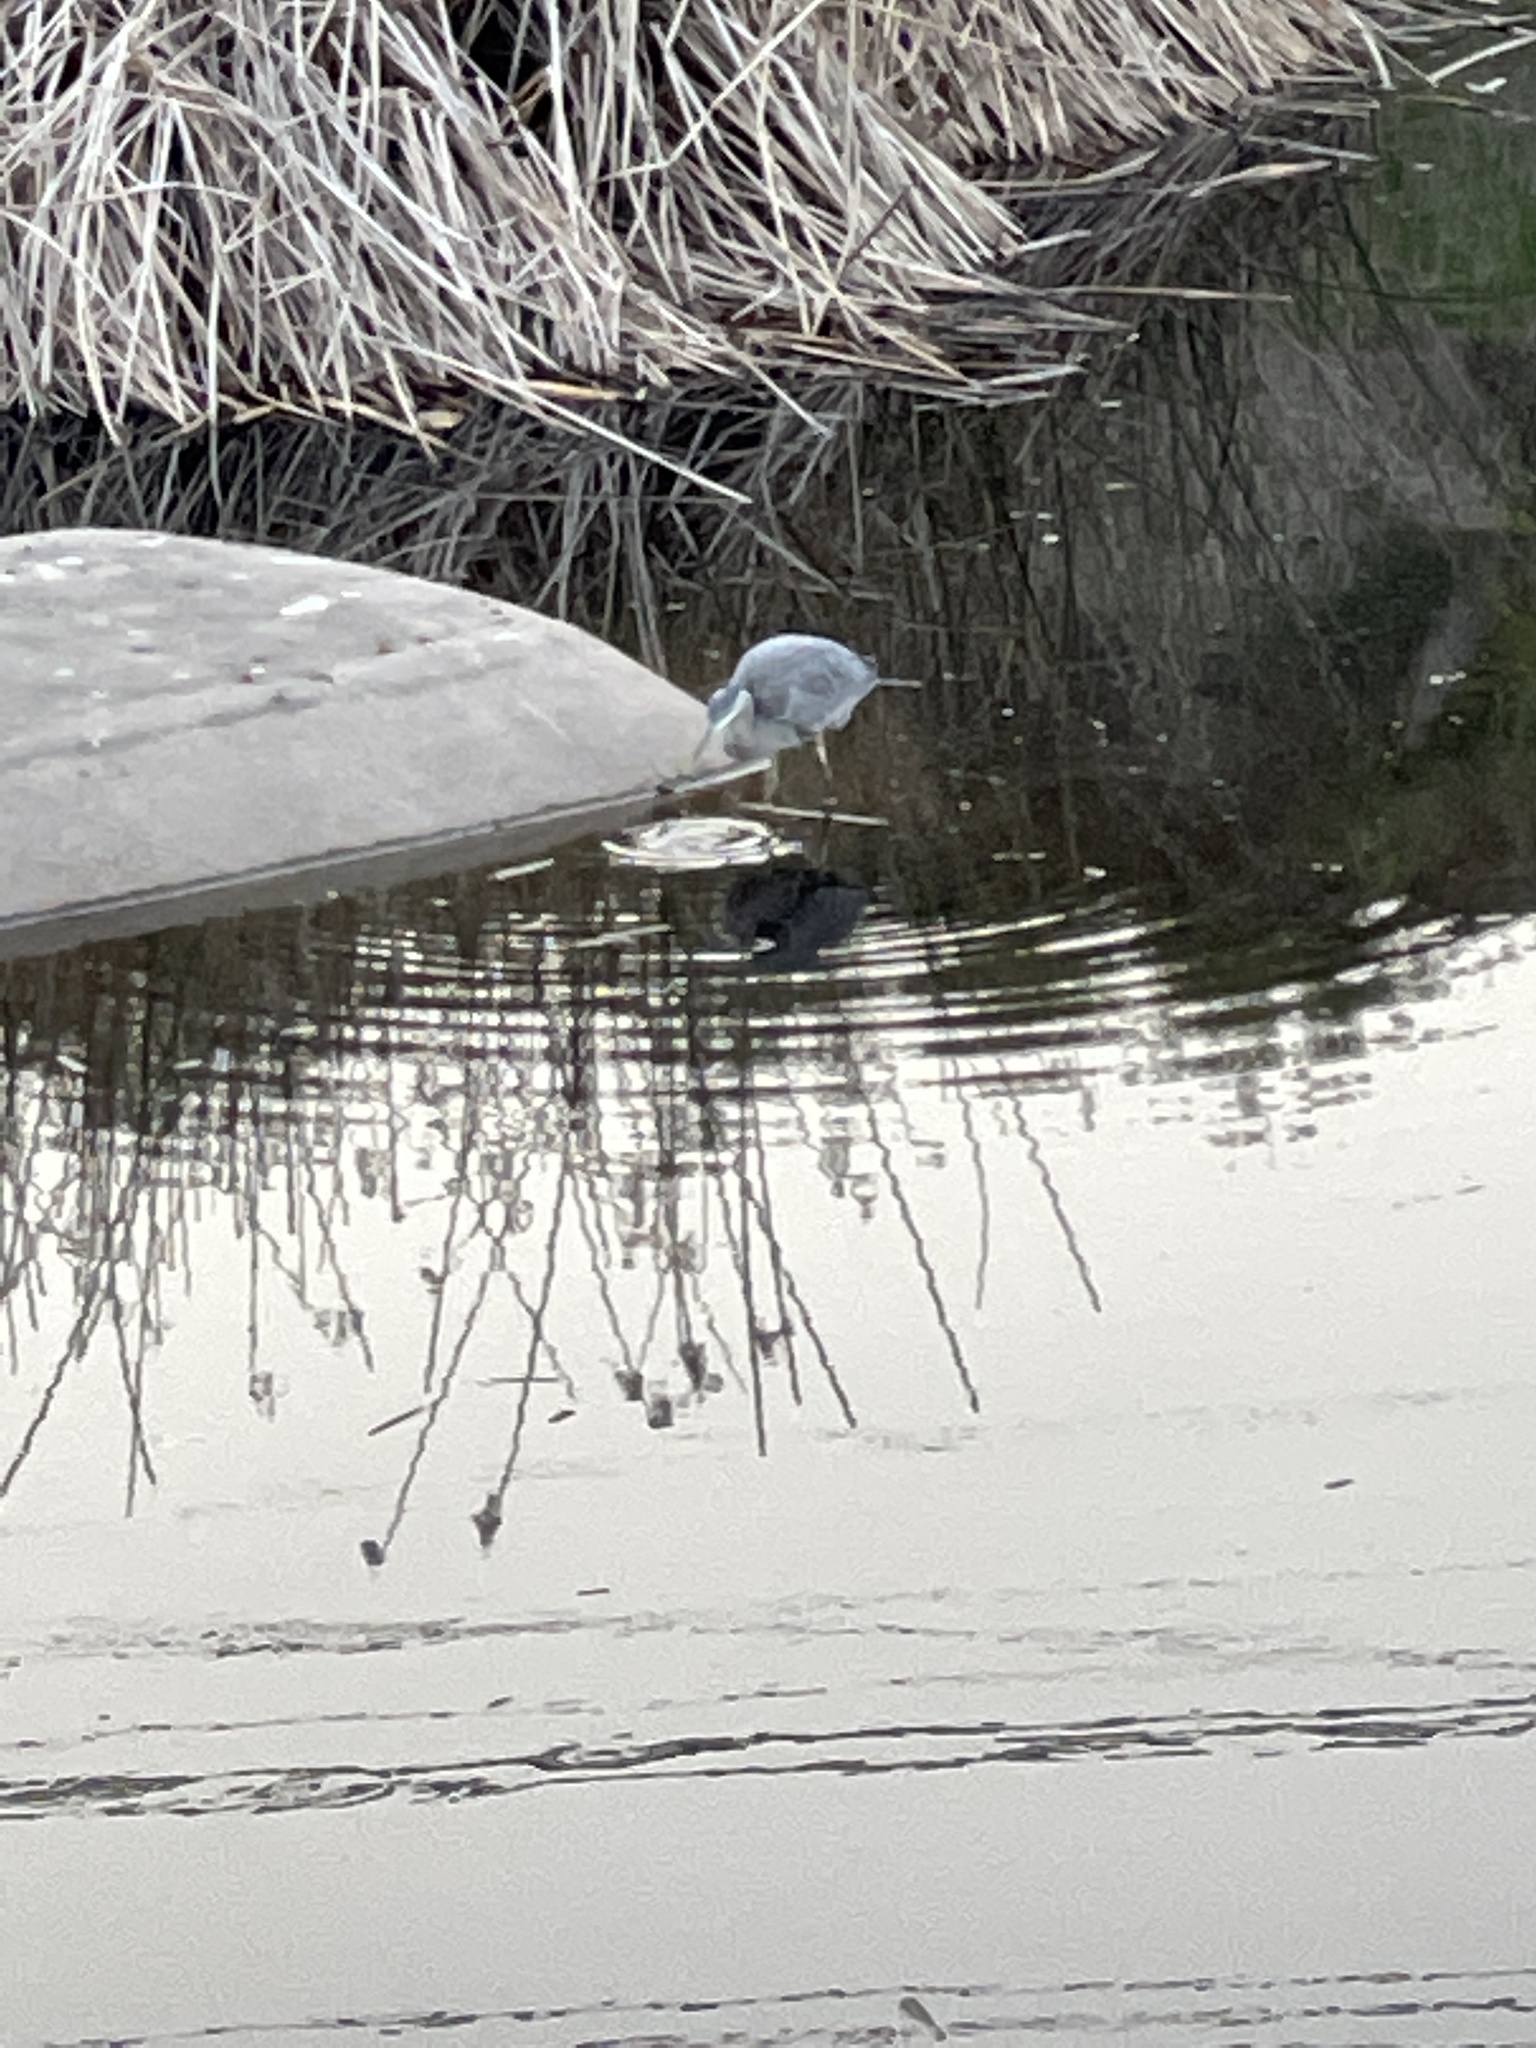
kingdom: Animalia
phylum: Chordata
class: Aves
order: Pelecaniformes
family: Ardeidae
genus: Ardea
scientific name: Ardea herodias
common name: Great blue heron
